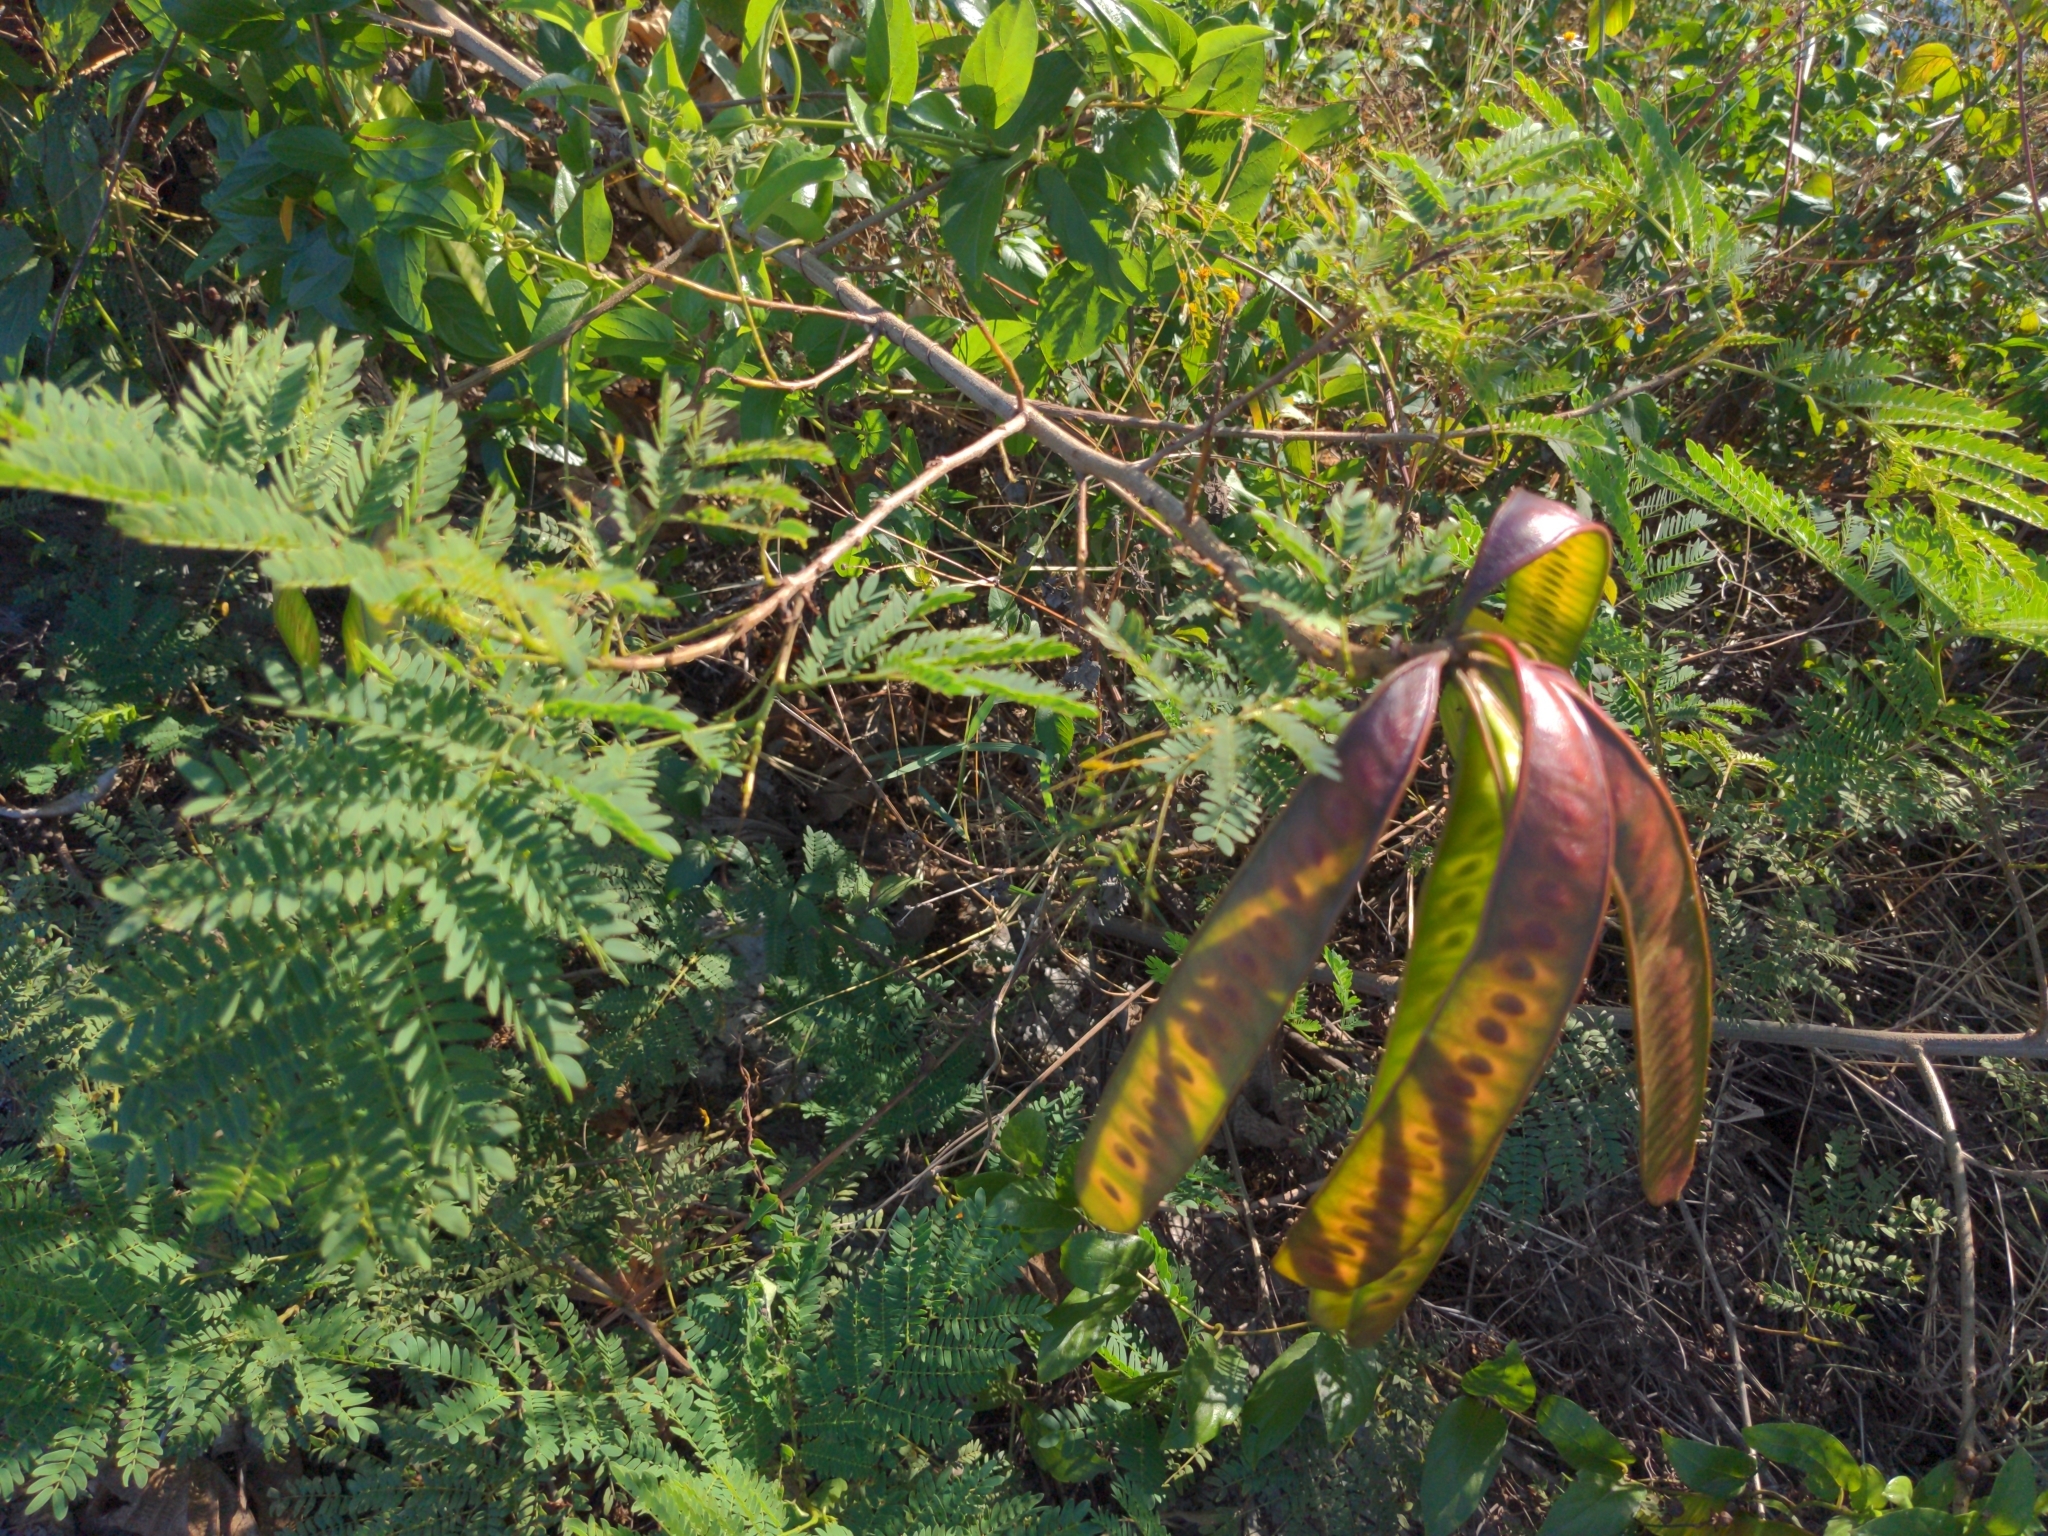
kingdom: Plantae
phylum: Tracheophyta
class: Magnoliopsida
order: Fabales
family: Fabaceae
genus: Leucaena
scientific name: Leucaena leucocephala
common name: White leadtree
